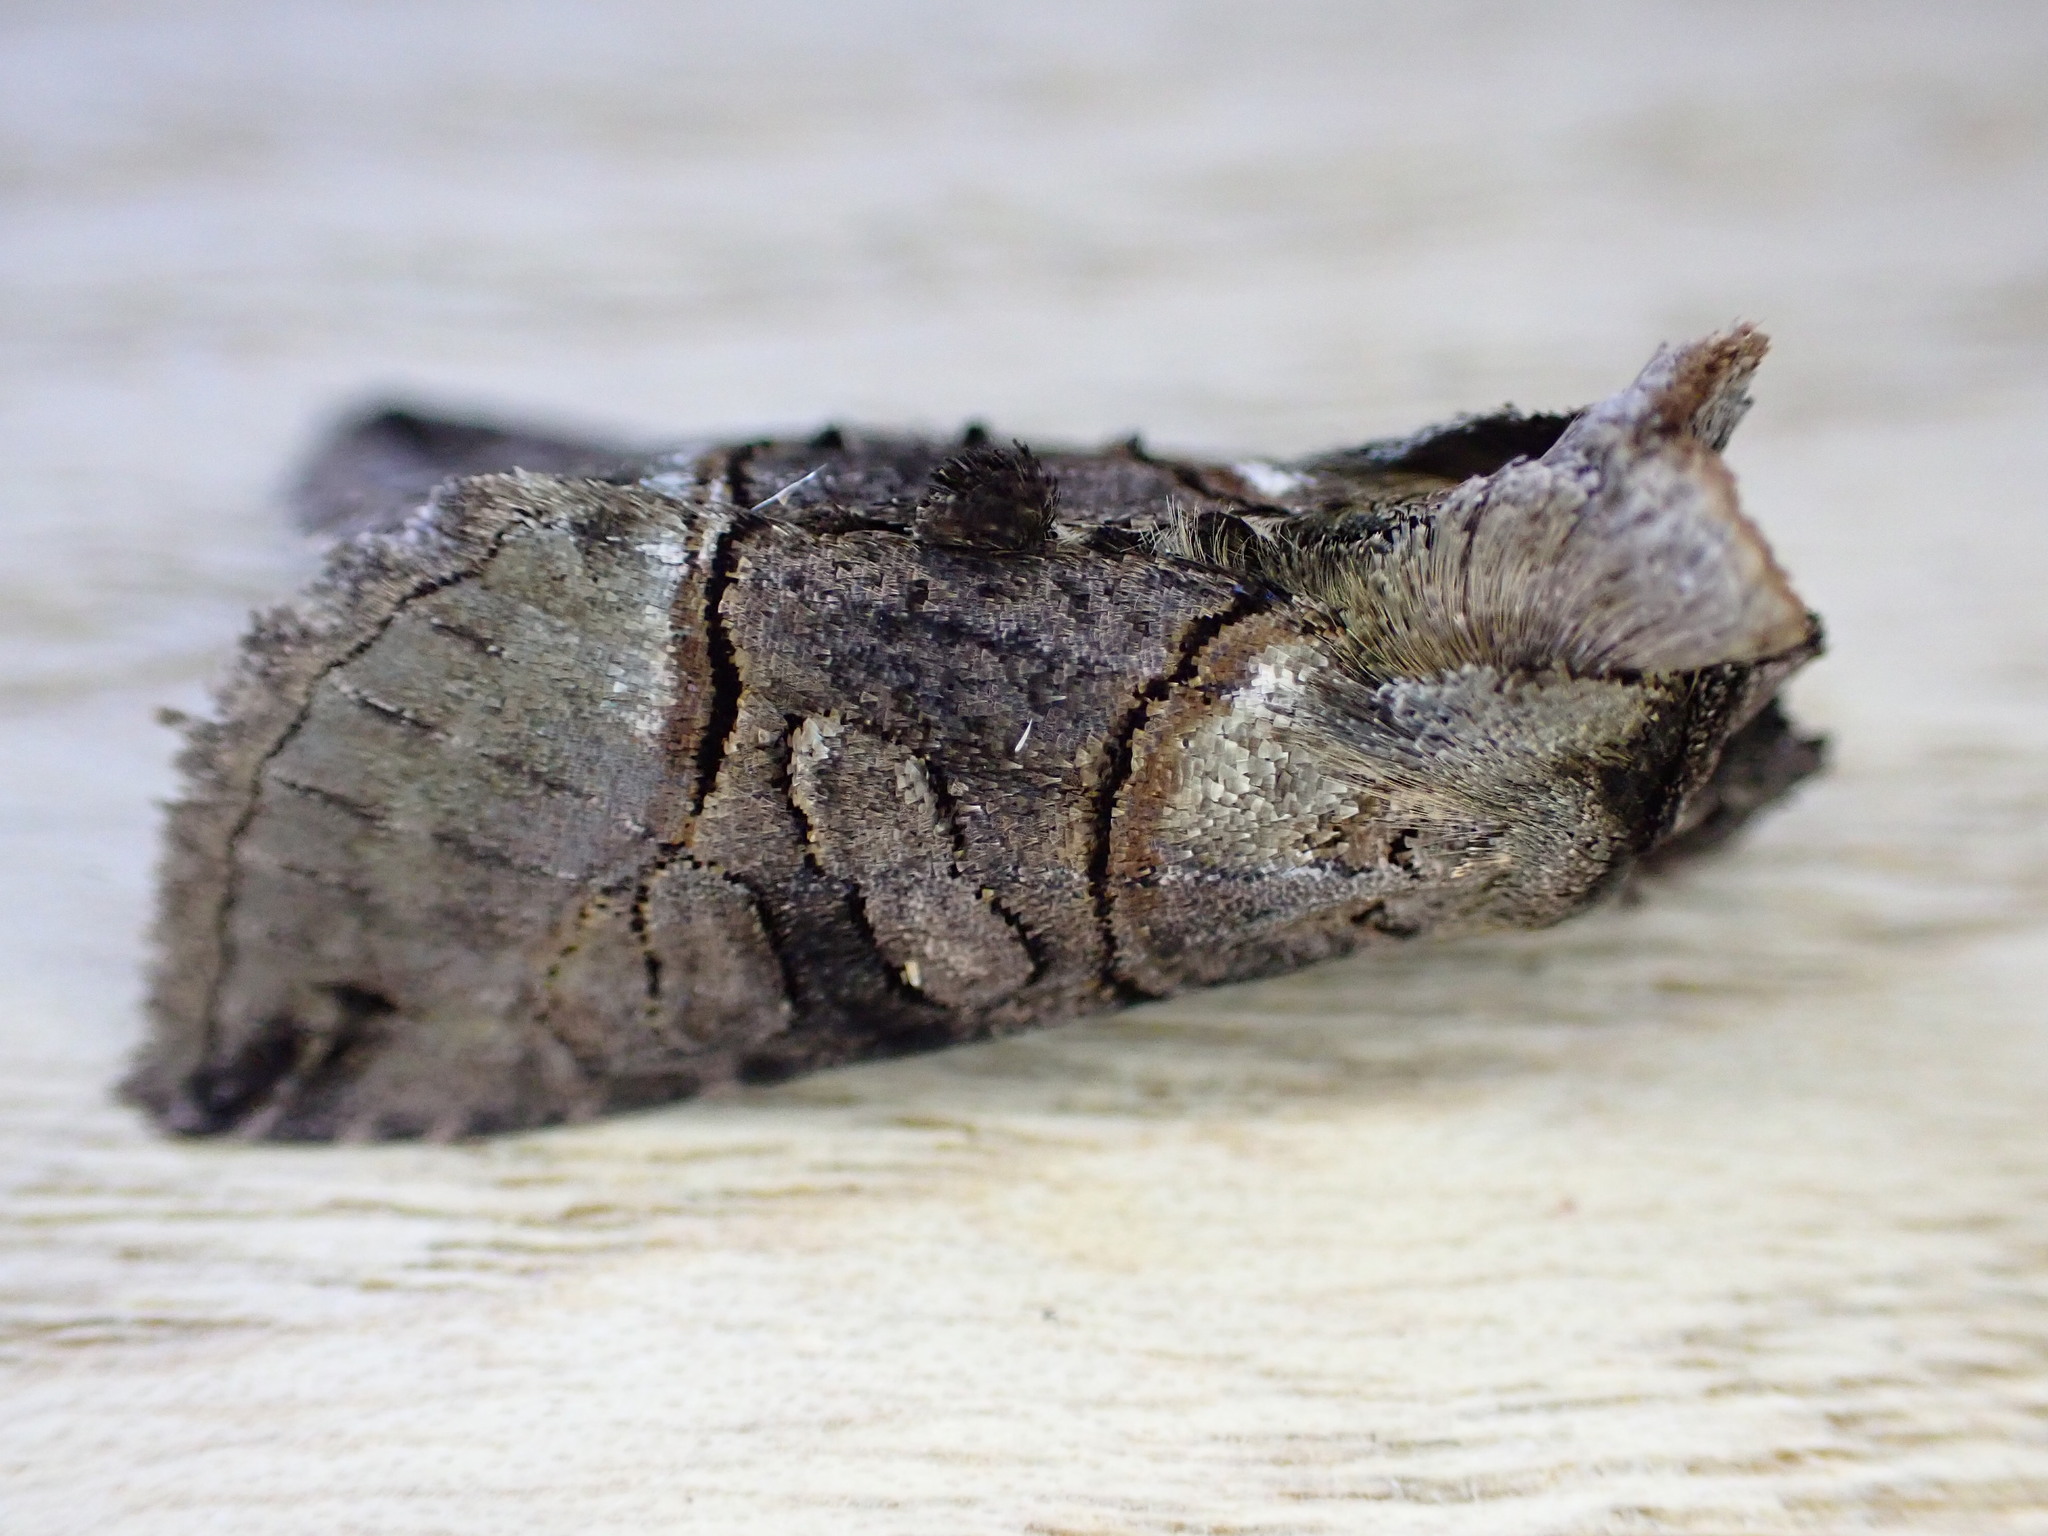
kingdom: Animalia
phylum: Arthropoda
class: Insecta
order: Lepidoptera
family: Noctuidae
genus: Abrostola
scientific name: Abrostola tripartita
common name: Spectacle
